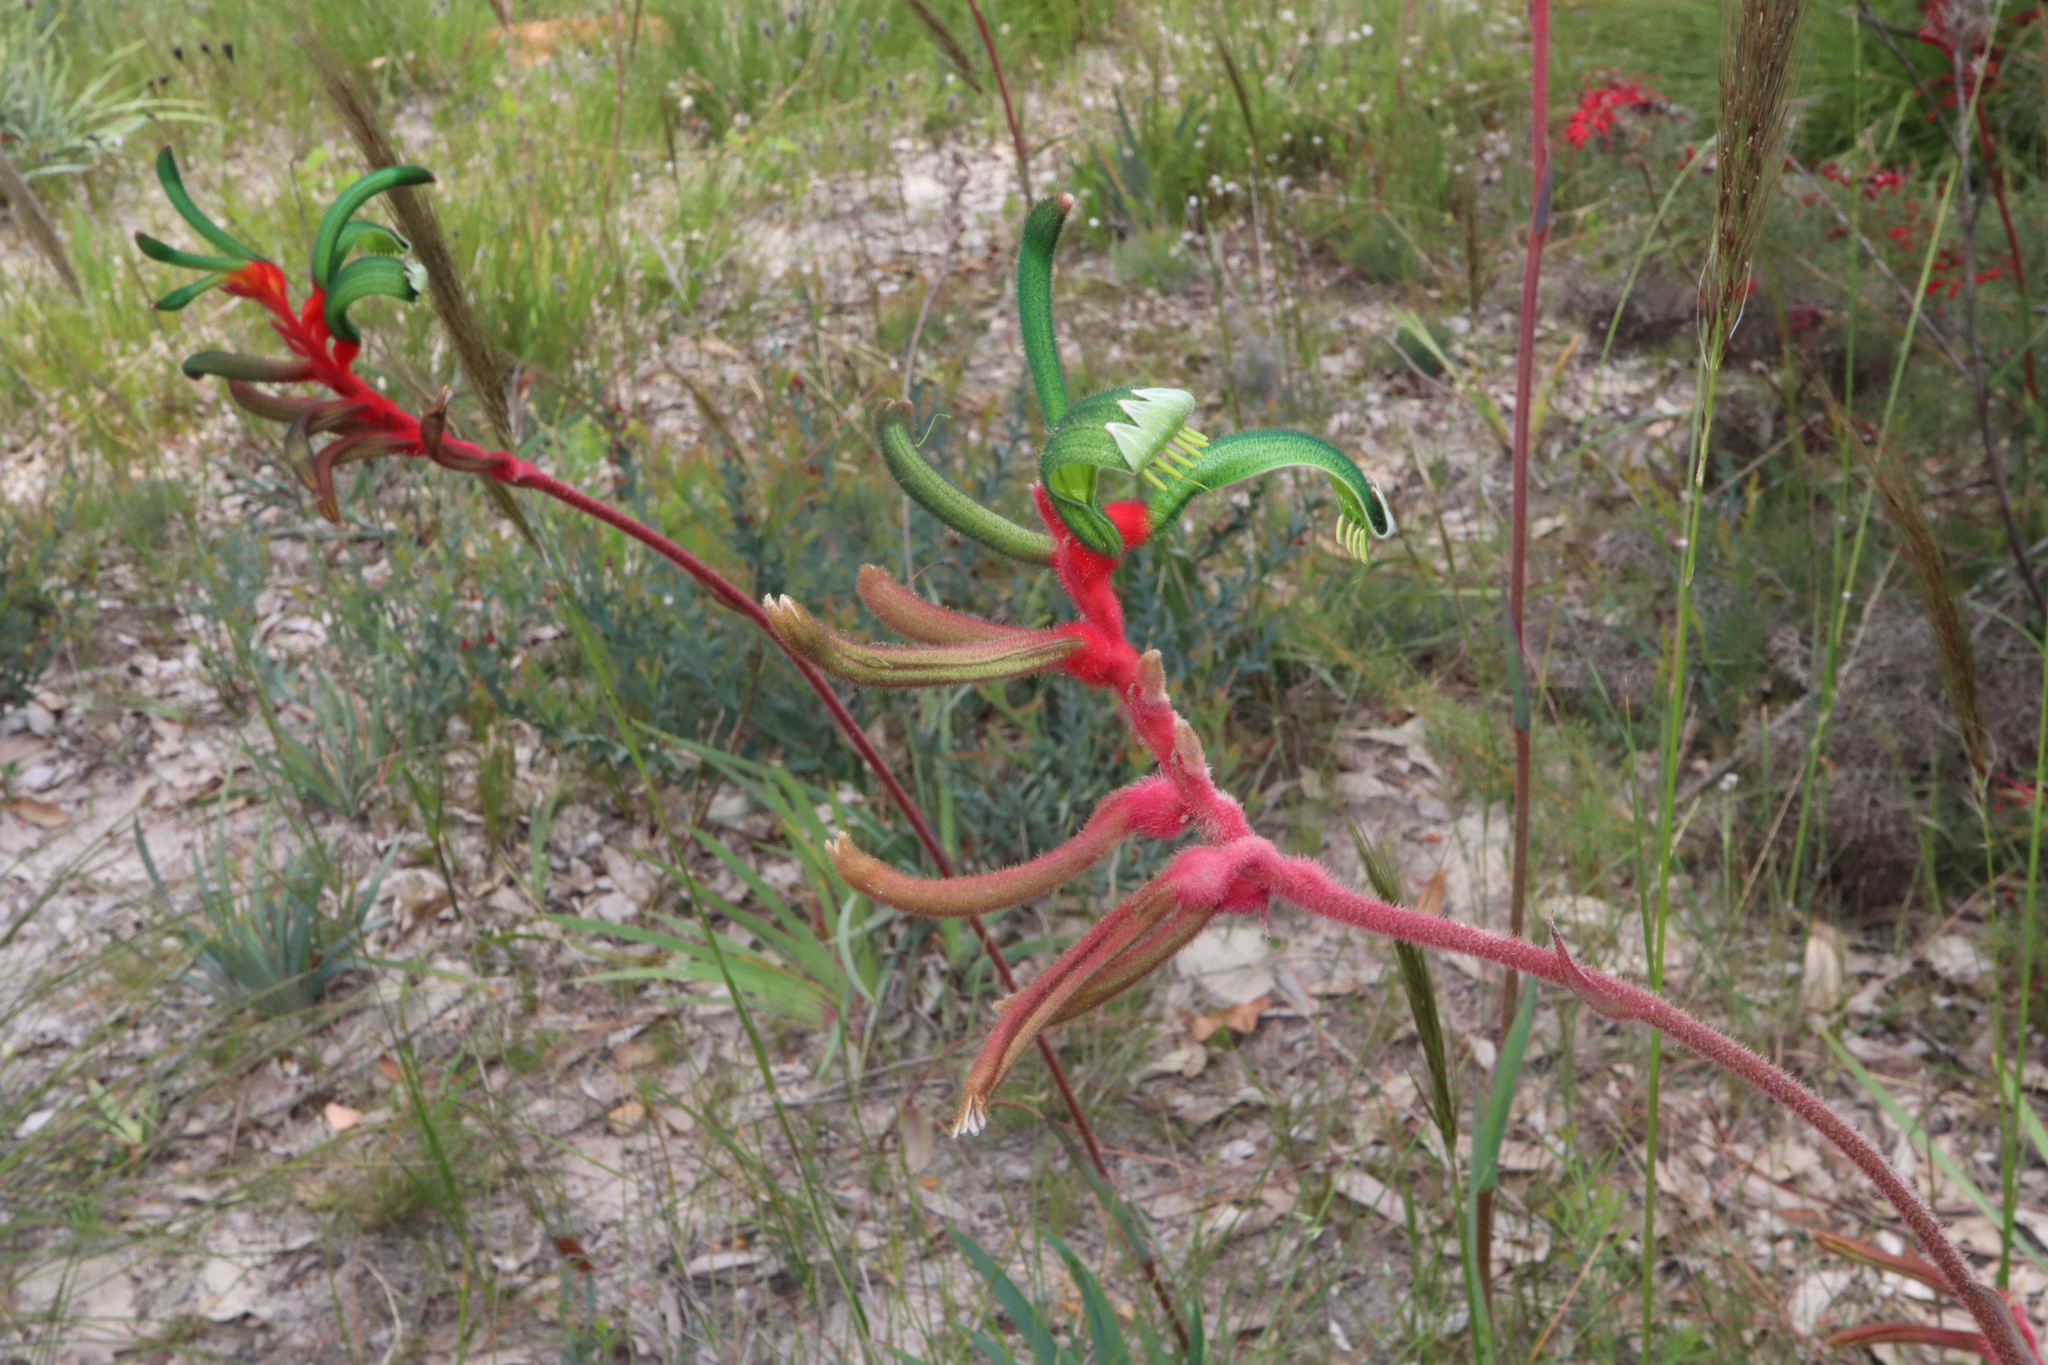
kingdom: Plantae
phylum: Tracheophyta
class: Liliopsida
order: Commelinales
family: Haemodoraceae
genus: Anigozanthos
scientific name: Anigozanthos manglesii
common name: Mangles's kangaroo-paw
